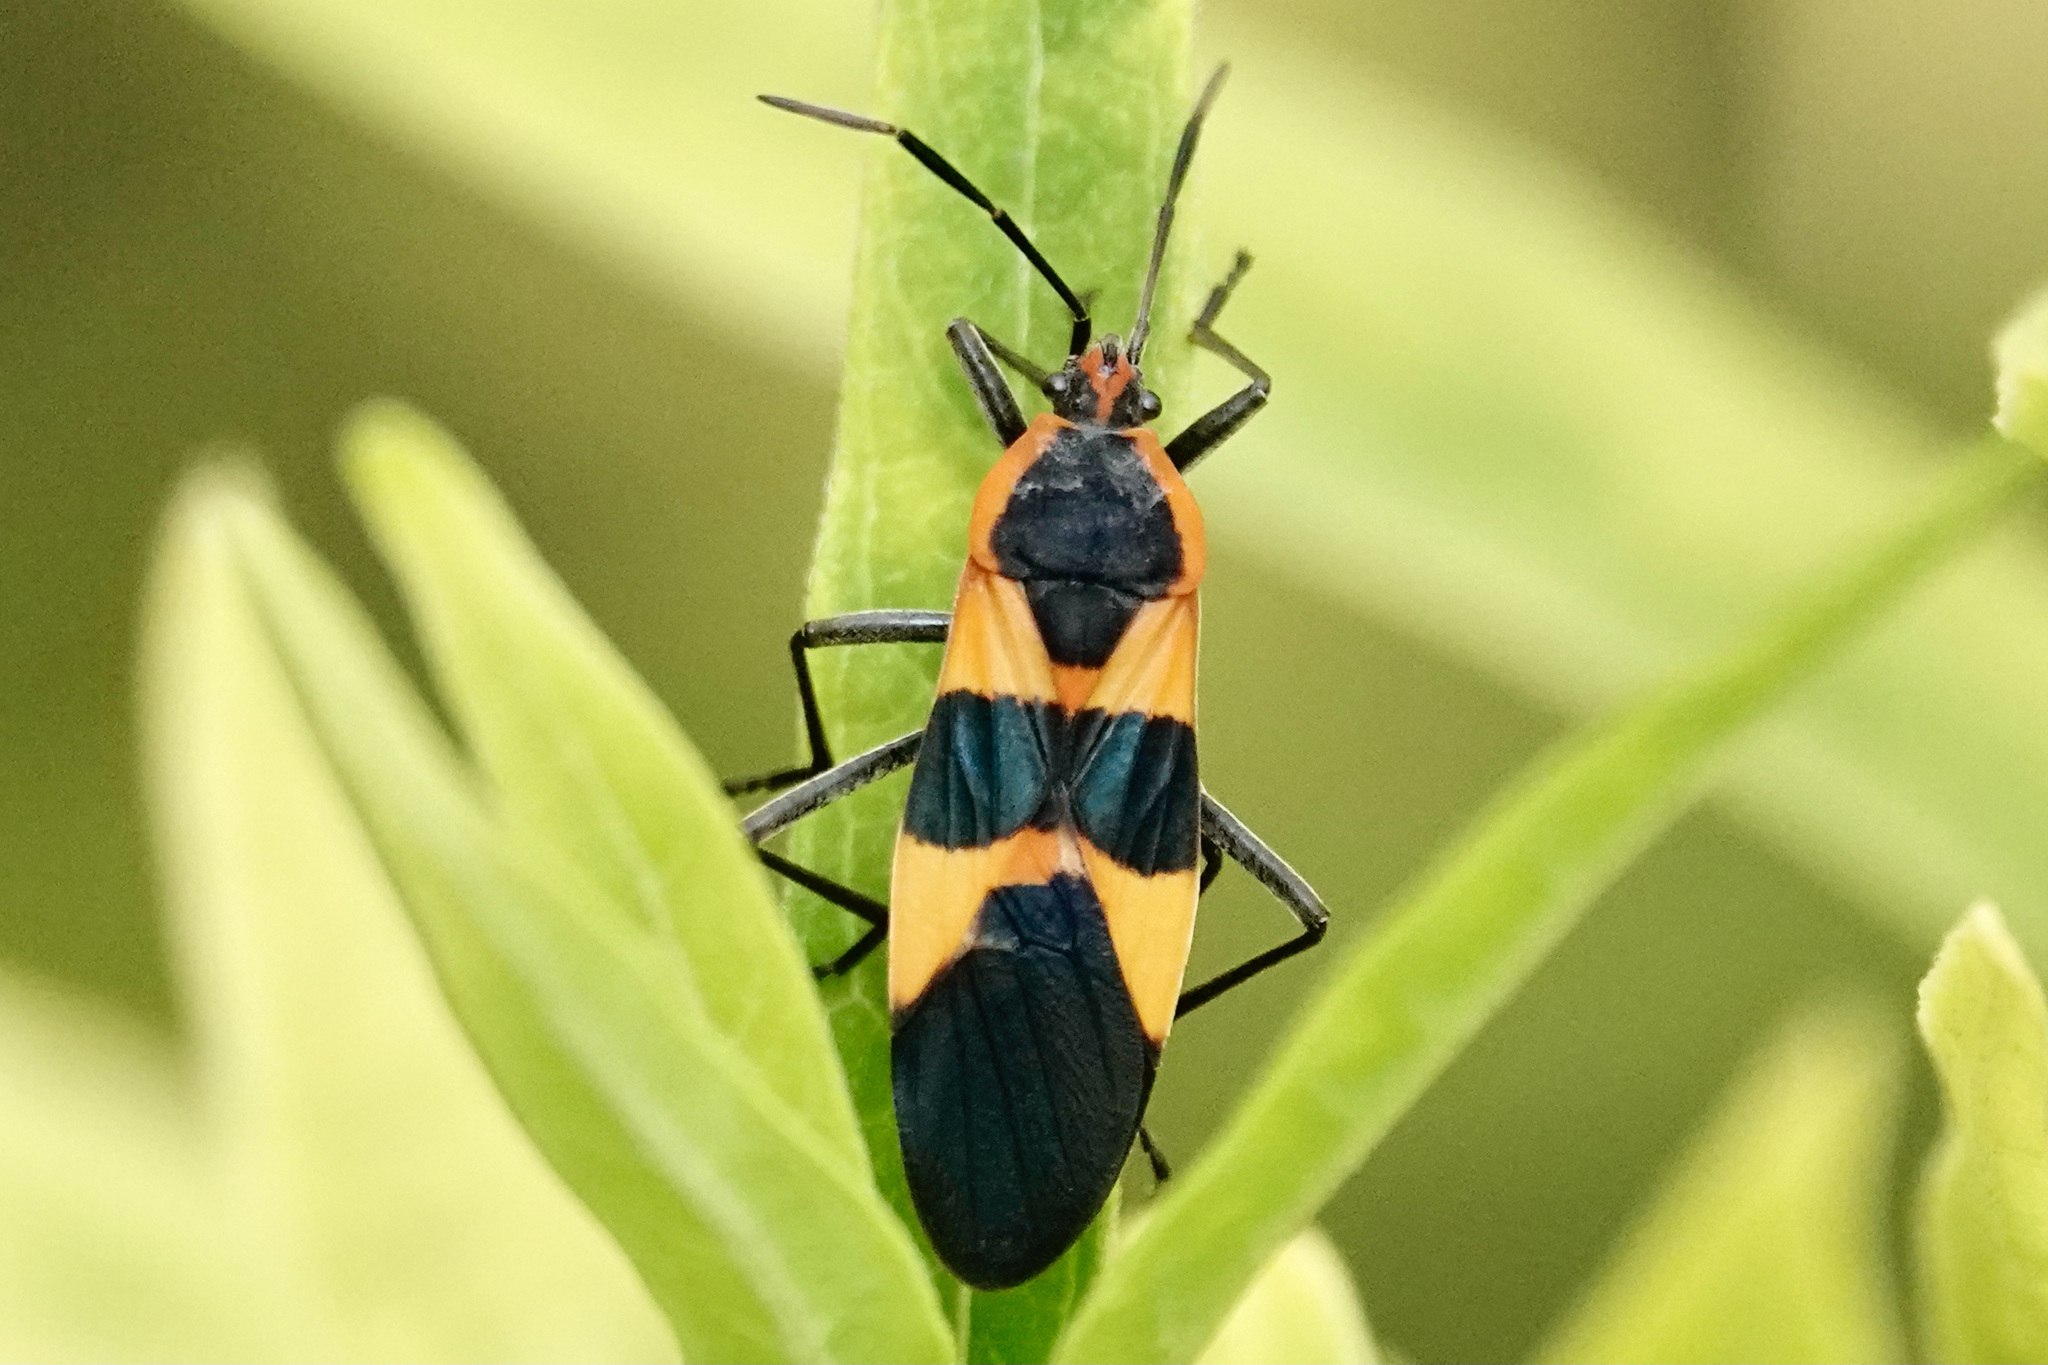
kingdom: Animalia
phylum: Arthropoda
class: Insecta
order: Hemiptera
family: Lygaeidae
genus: Oncopeltus
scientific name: Oncopeltus fasciatus
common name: Large milkweed bug
